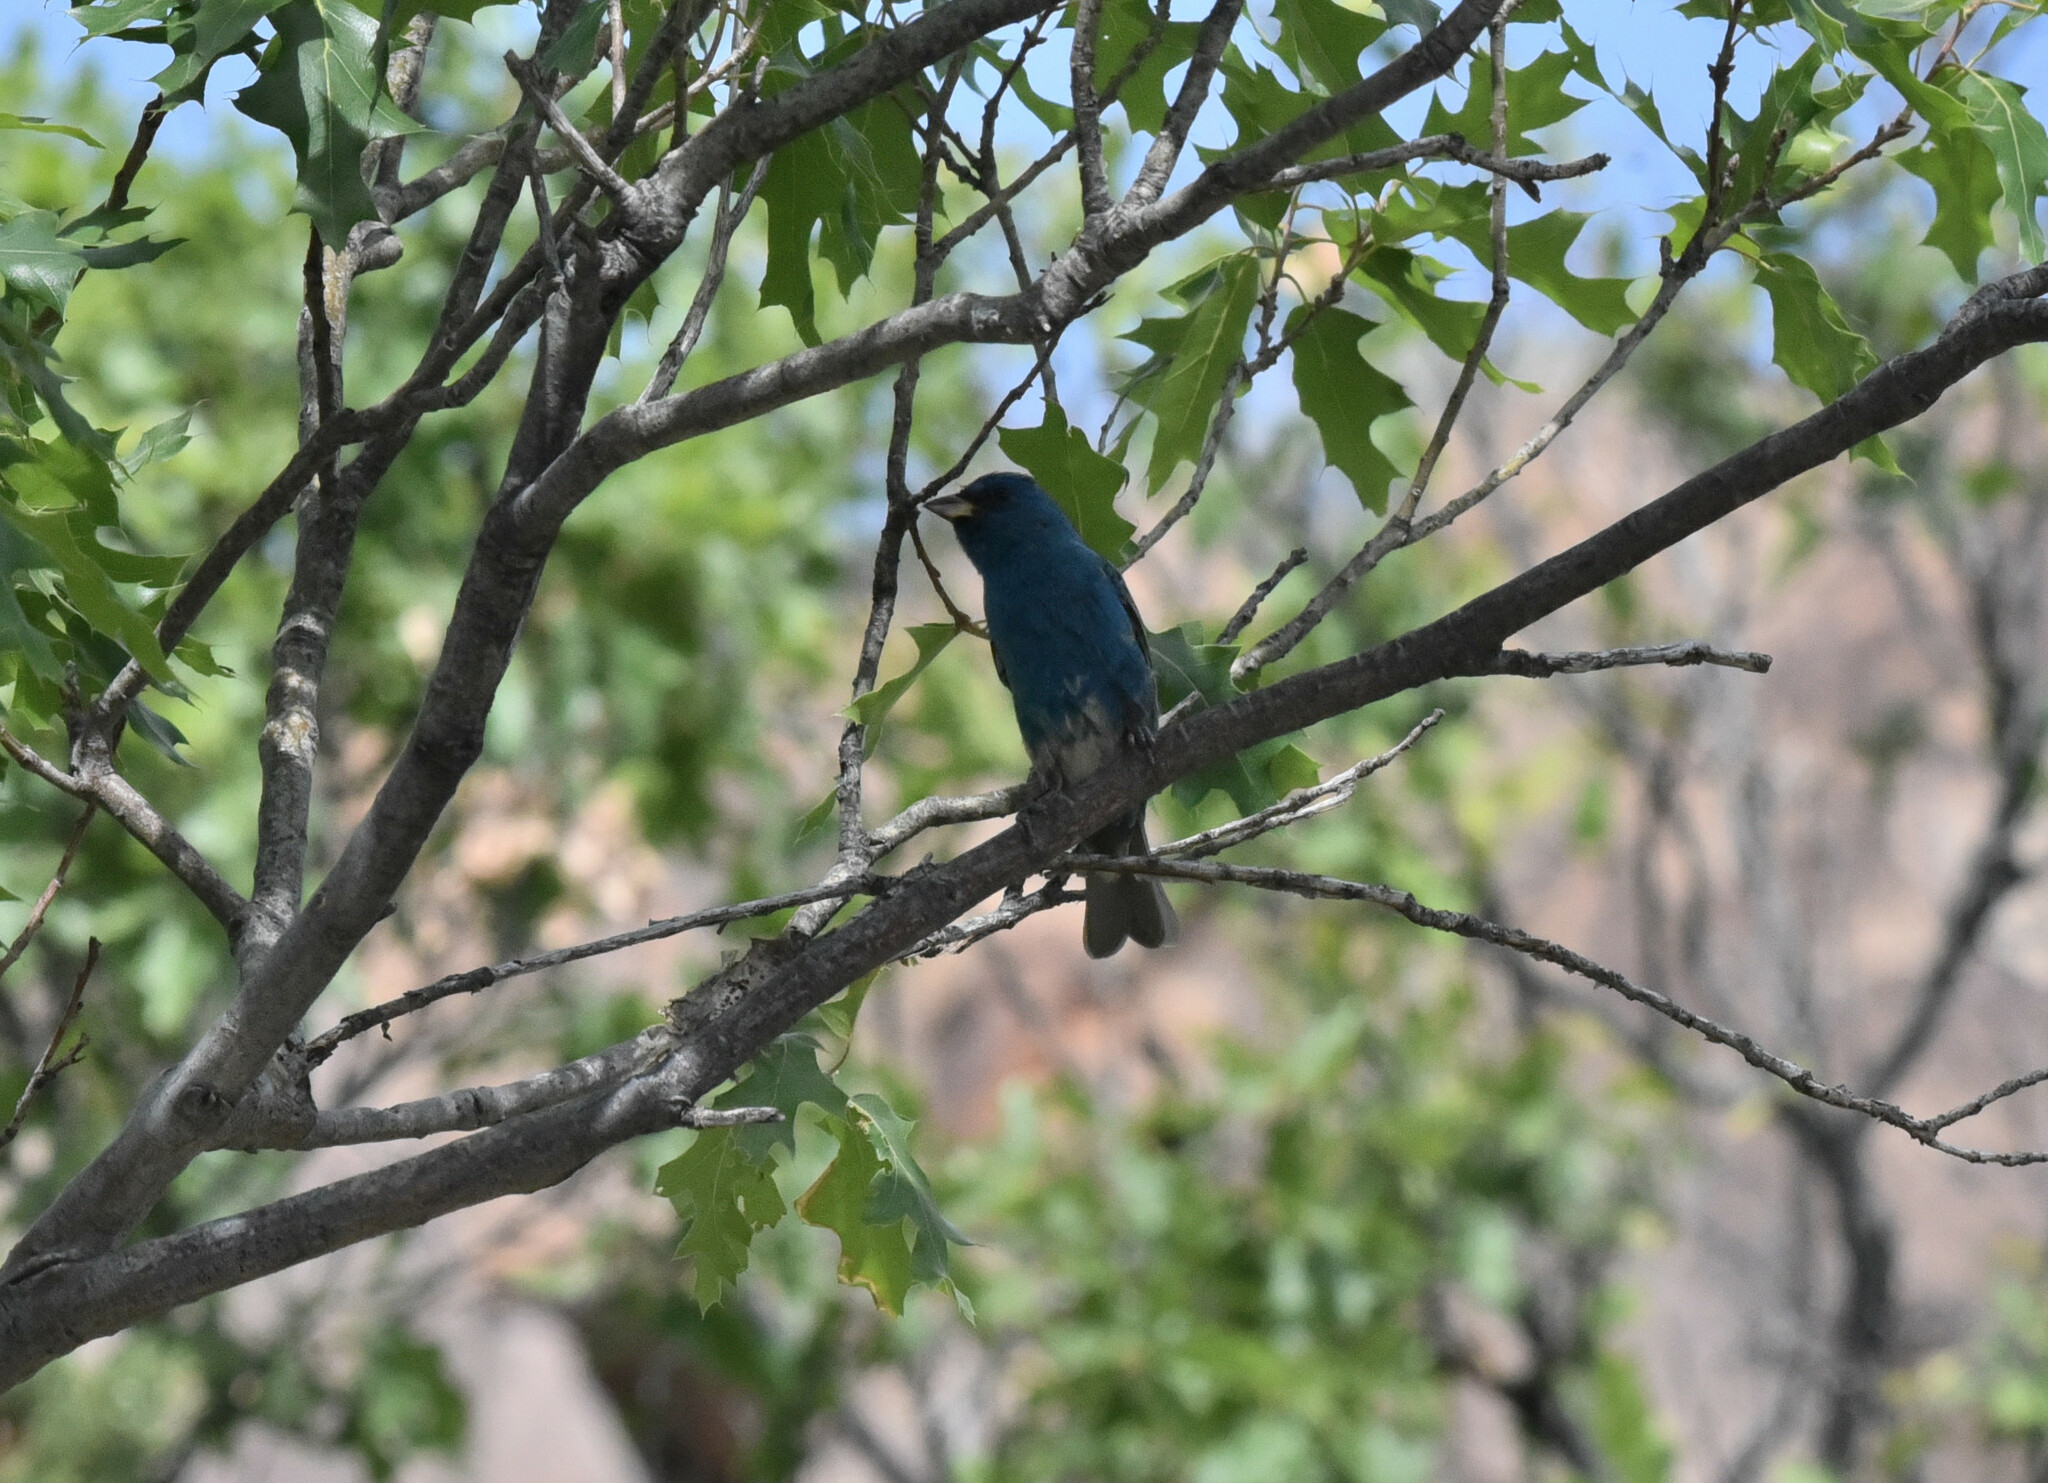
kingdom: Animalia
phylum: Chordata
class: Aves
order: Passeriformes
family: Cardinalidae
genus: Passerina
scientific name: Passerina cyanea
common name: Indigo bunting
